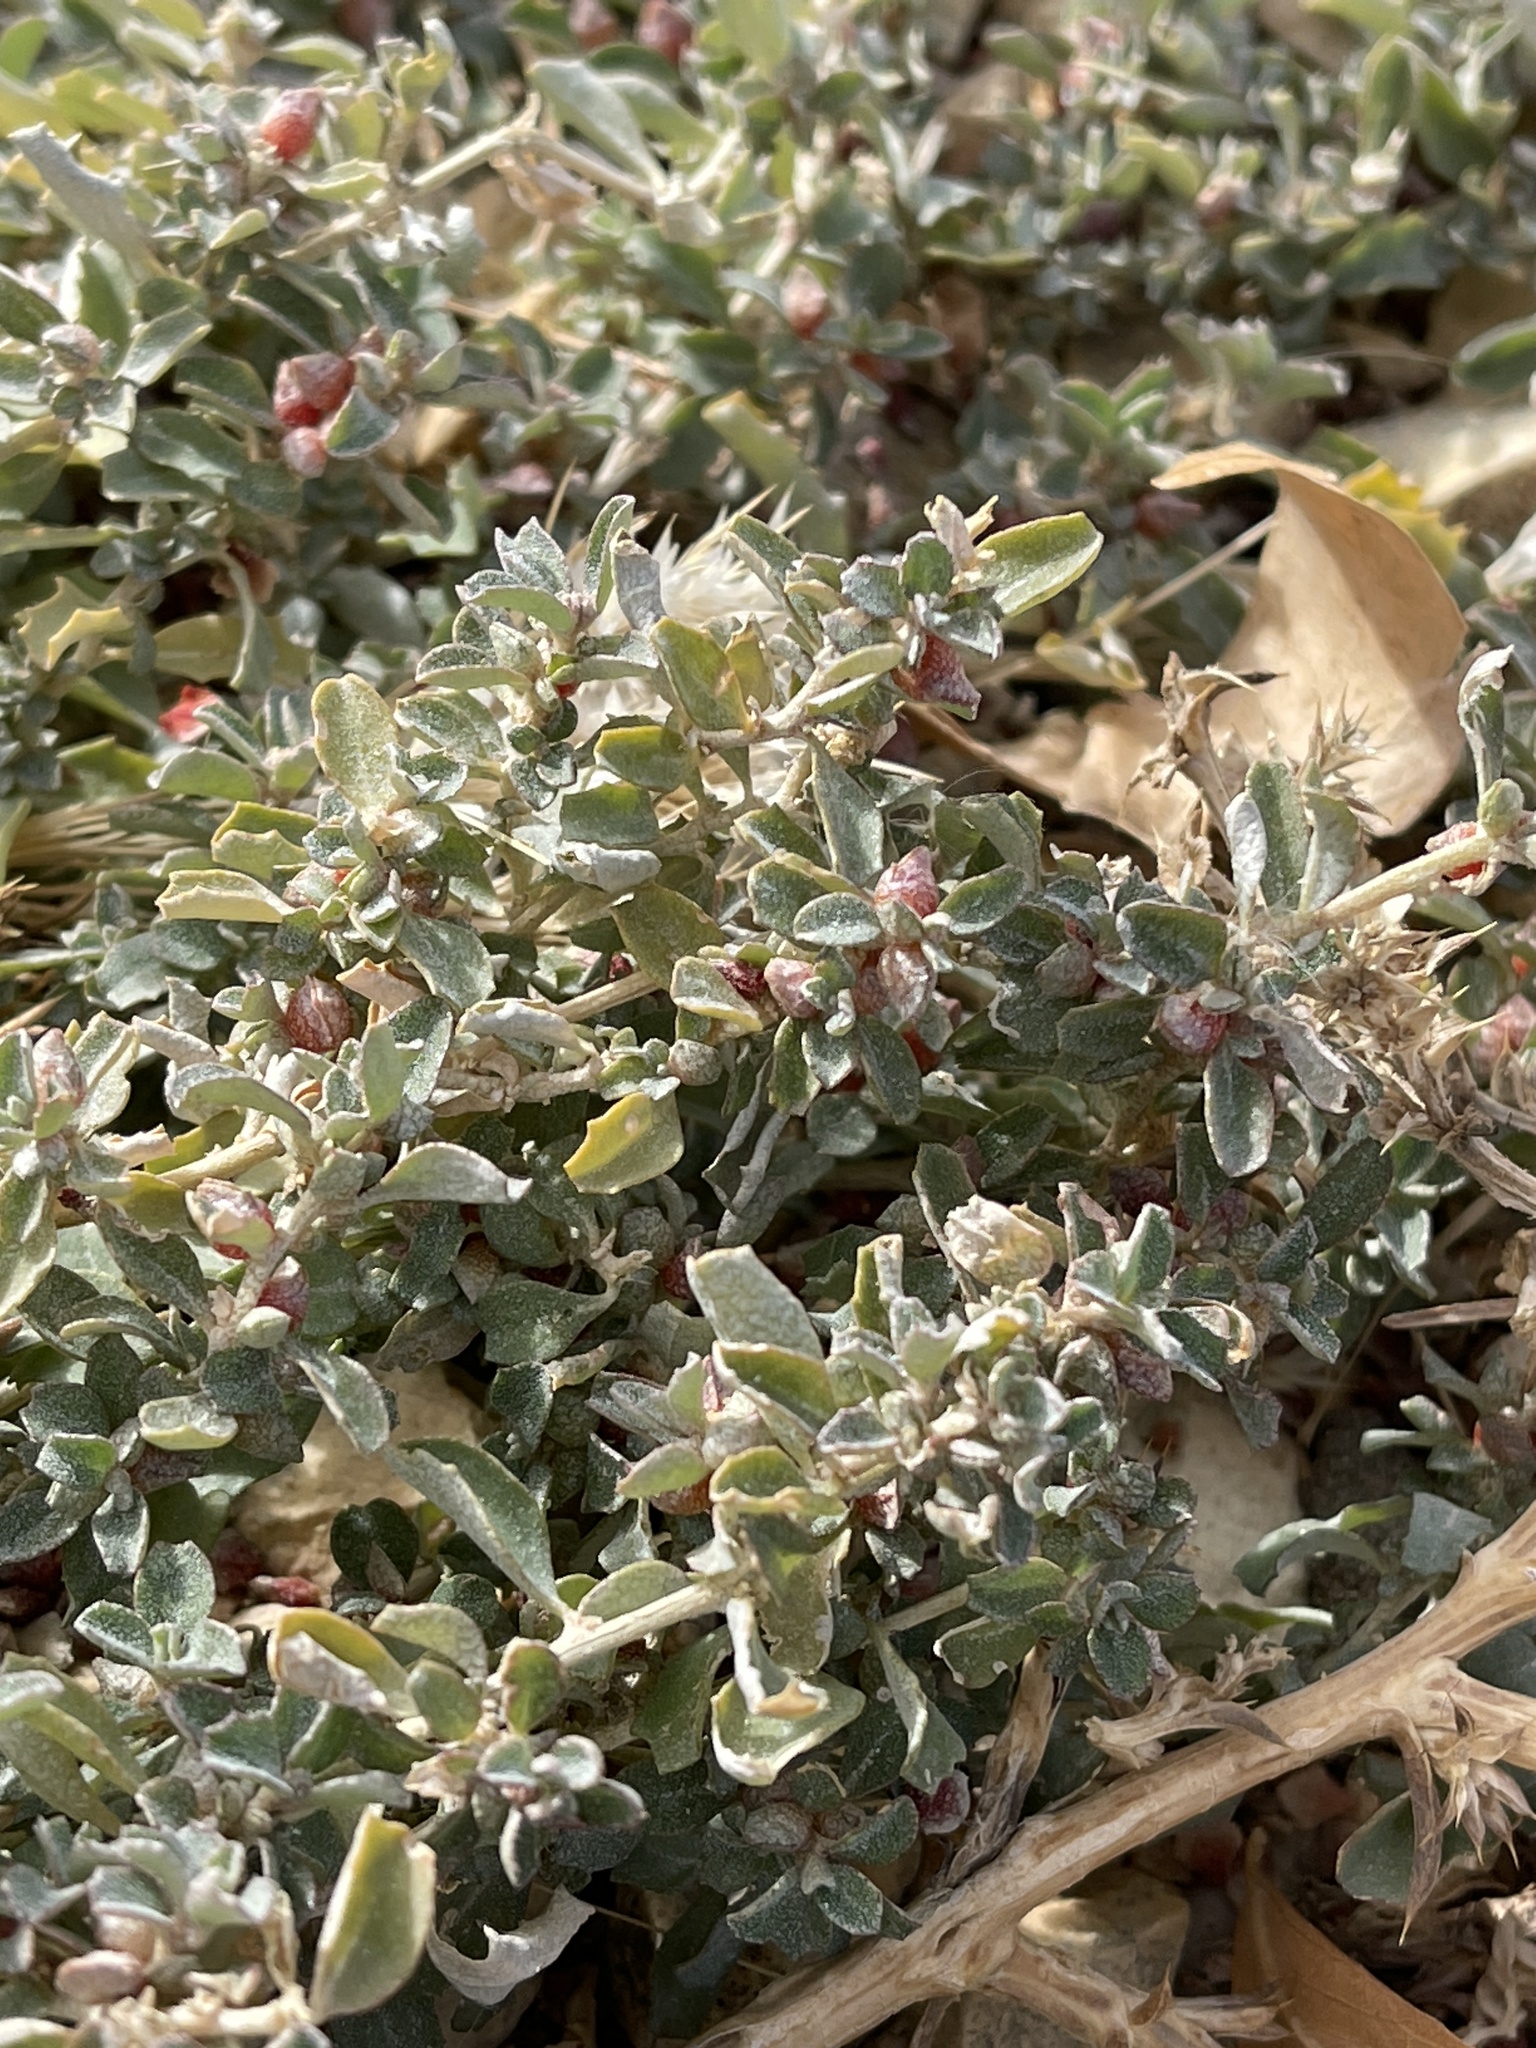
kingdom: Plantae
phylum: Tracheophyta
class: Magnoliopsida
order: Caryophyllales
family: Amaranthaceae
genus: Atriplex
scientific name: Atriplex semibaccata
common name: Australian saltbush
